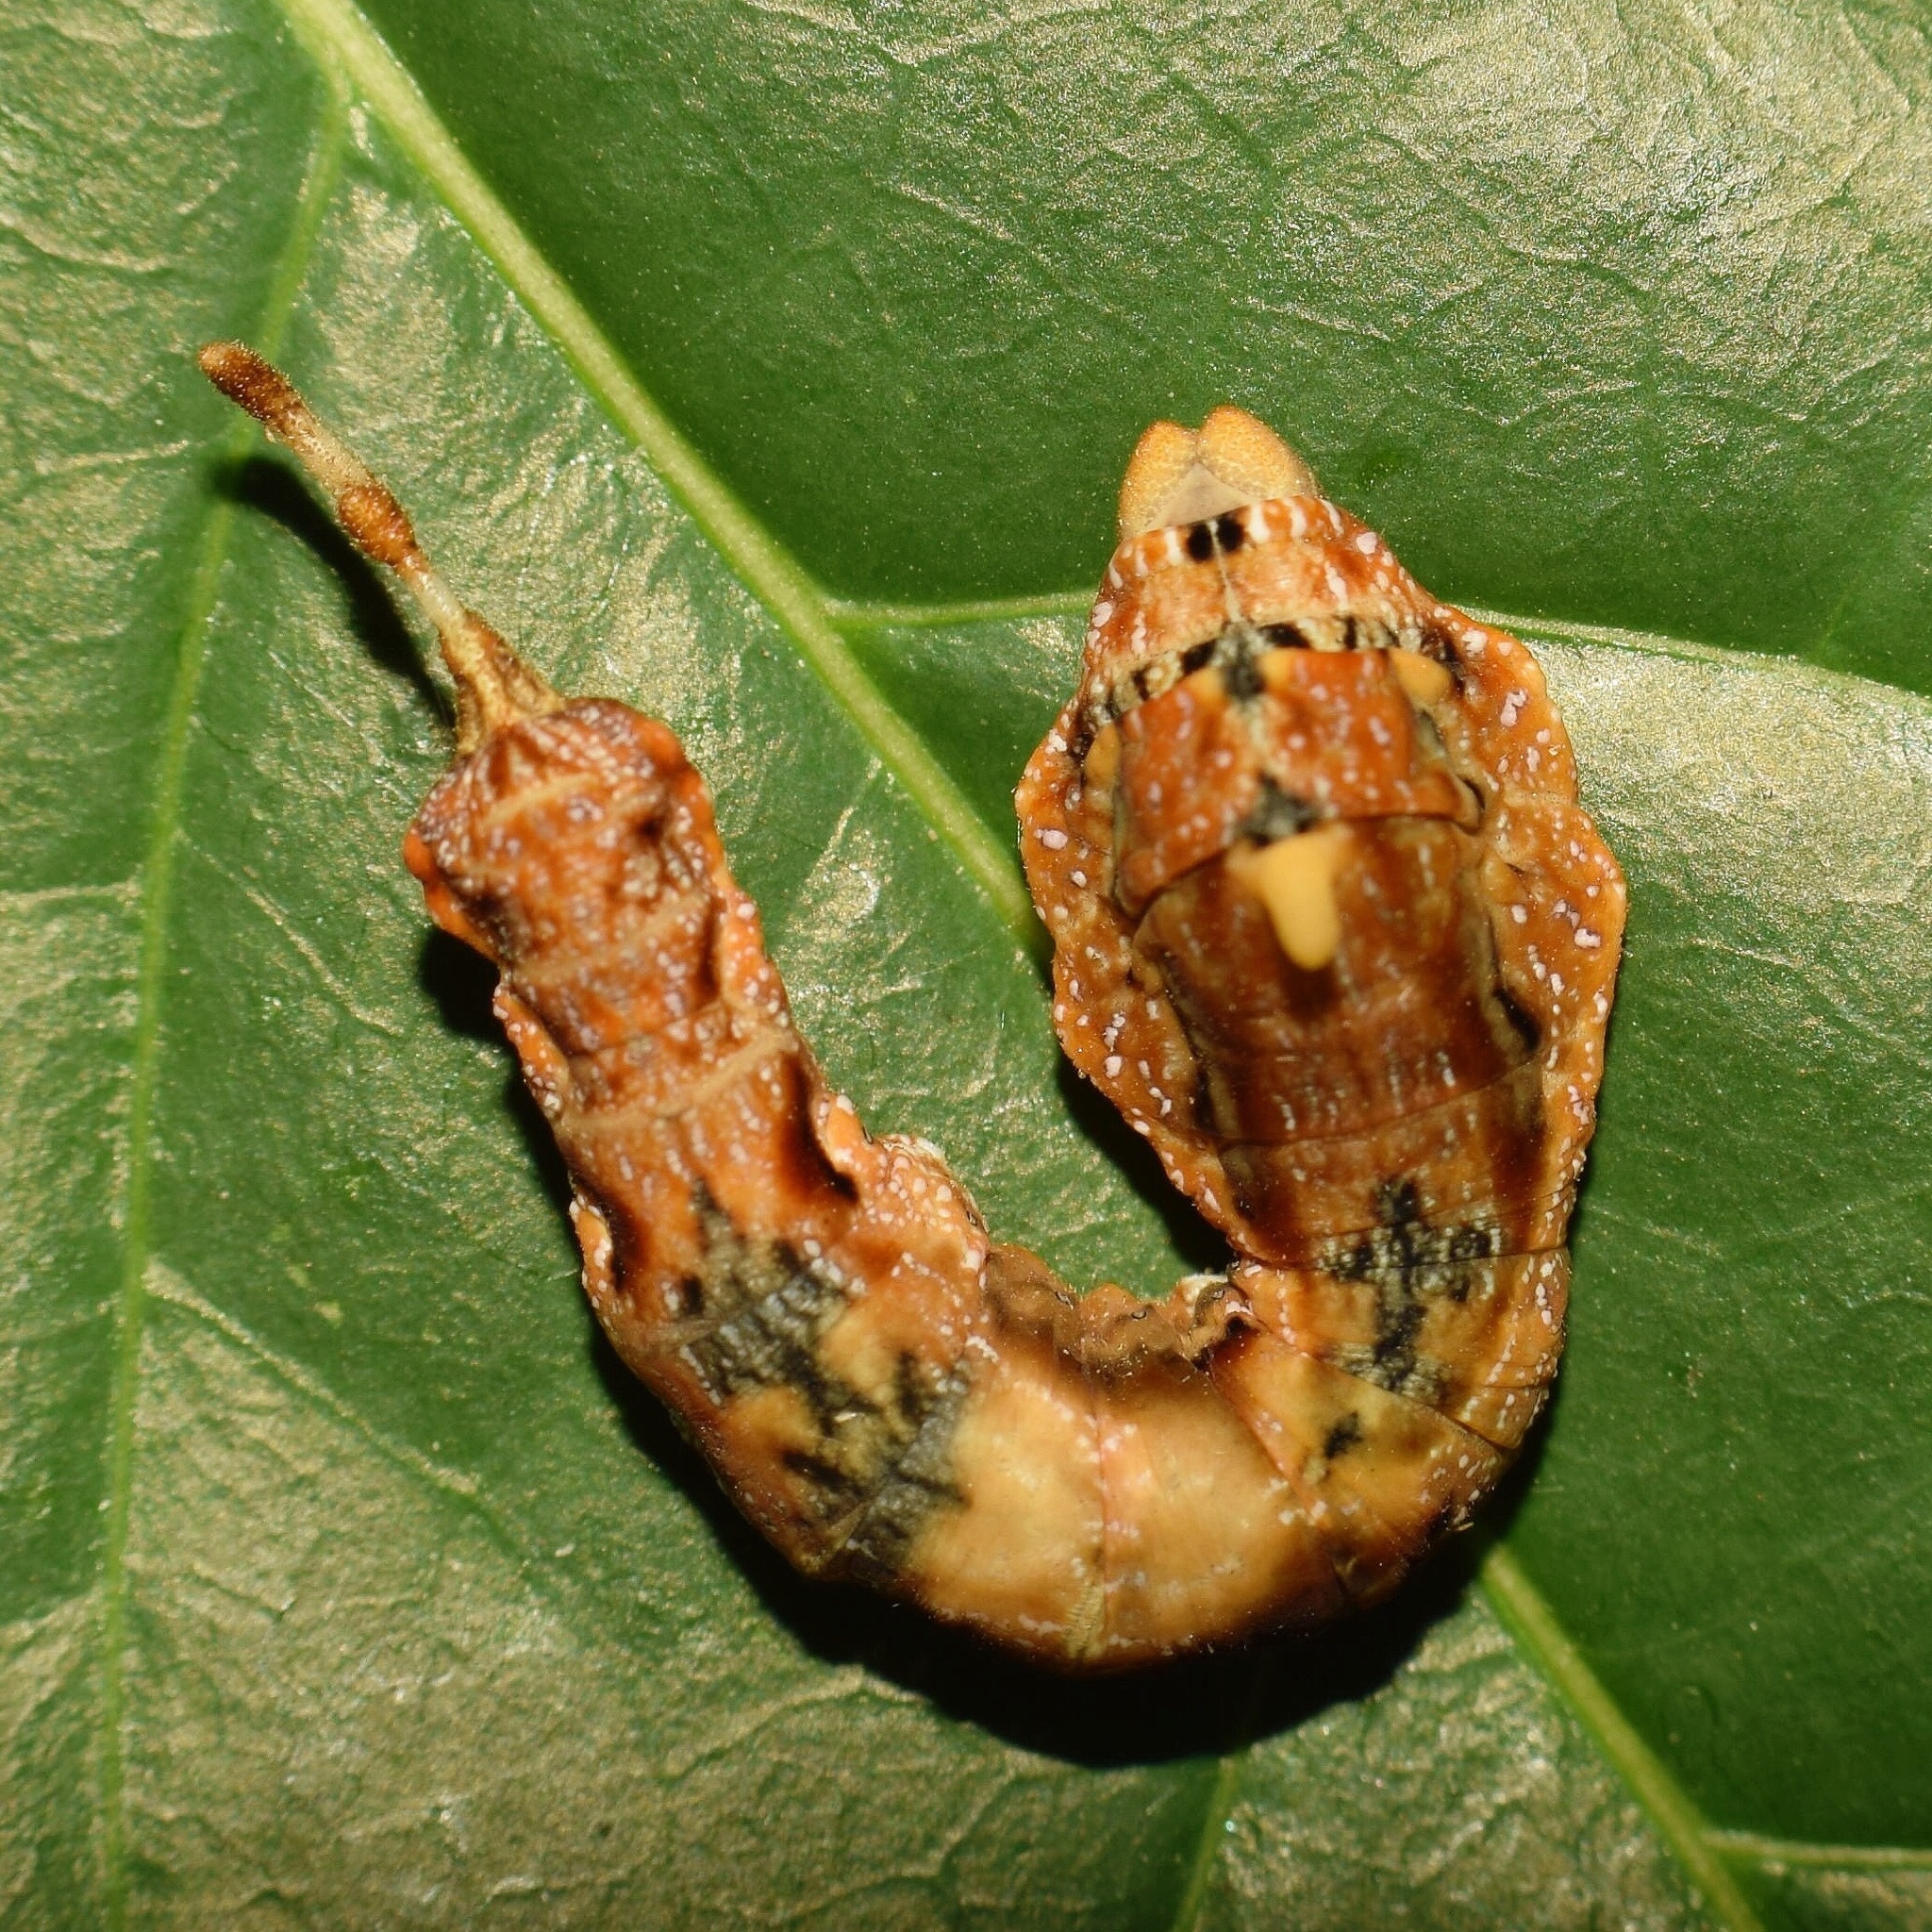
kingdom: Animalia
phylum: Arthropoda
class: Insecta
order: Lepidoptera
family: Drepanidae
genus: Negera
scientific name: Negera natalensis
